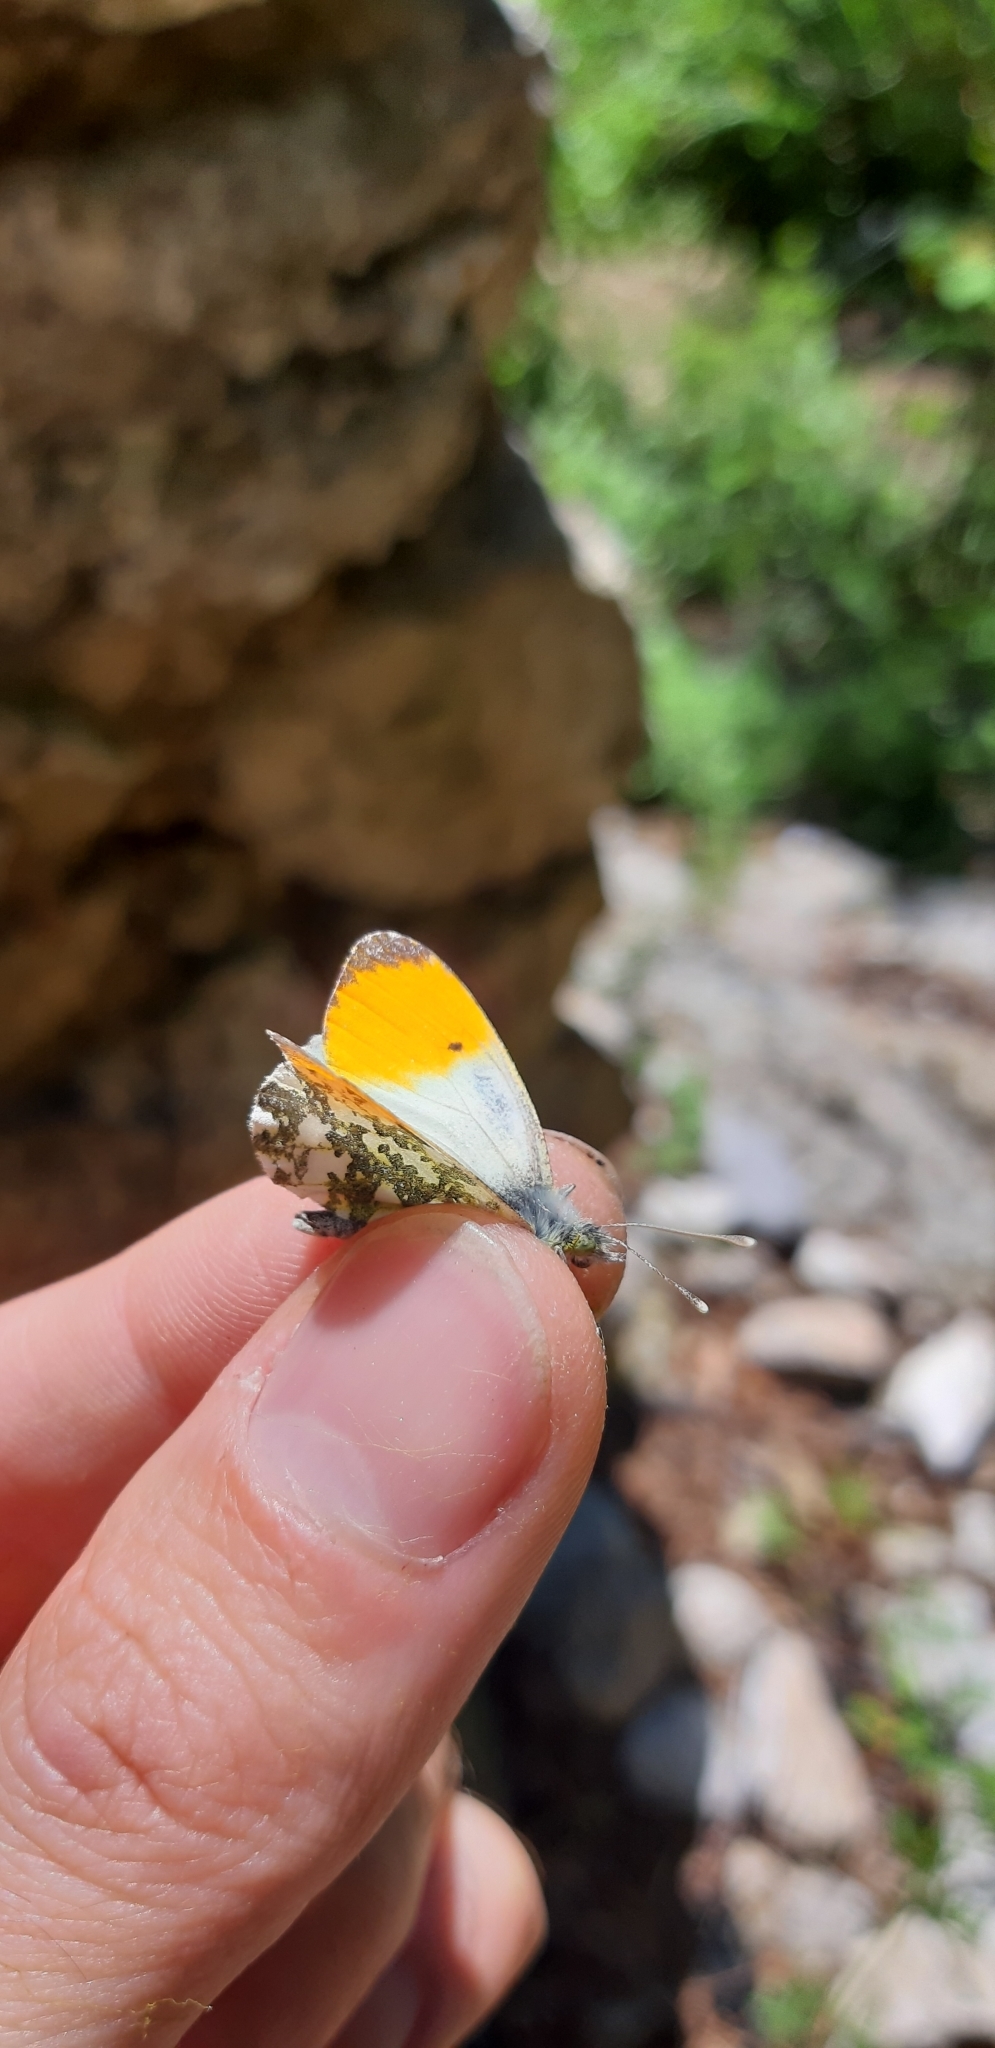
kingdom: Animalia
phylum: Arthropoda
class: Insecta
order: Lepidoptera
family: Pieridae
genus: Anthocharis
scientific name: Anthocharis cardamines
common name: Orange-tip
